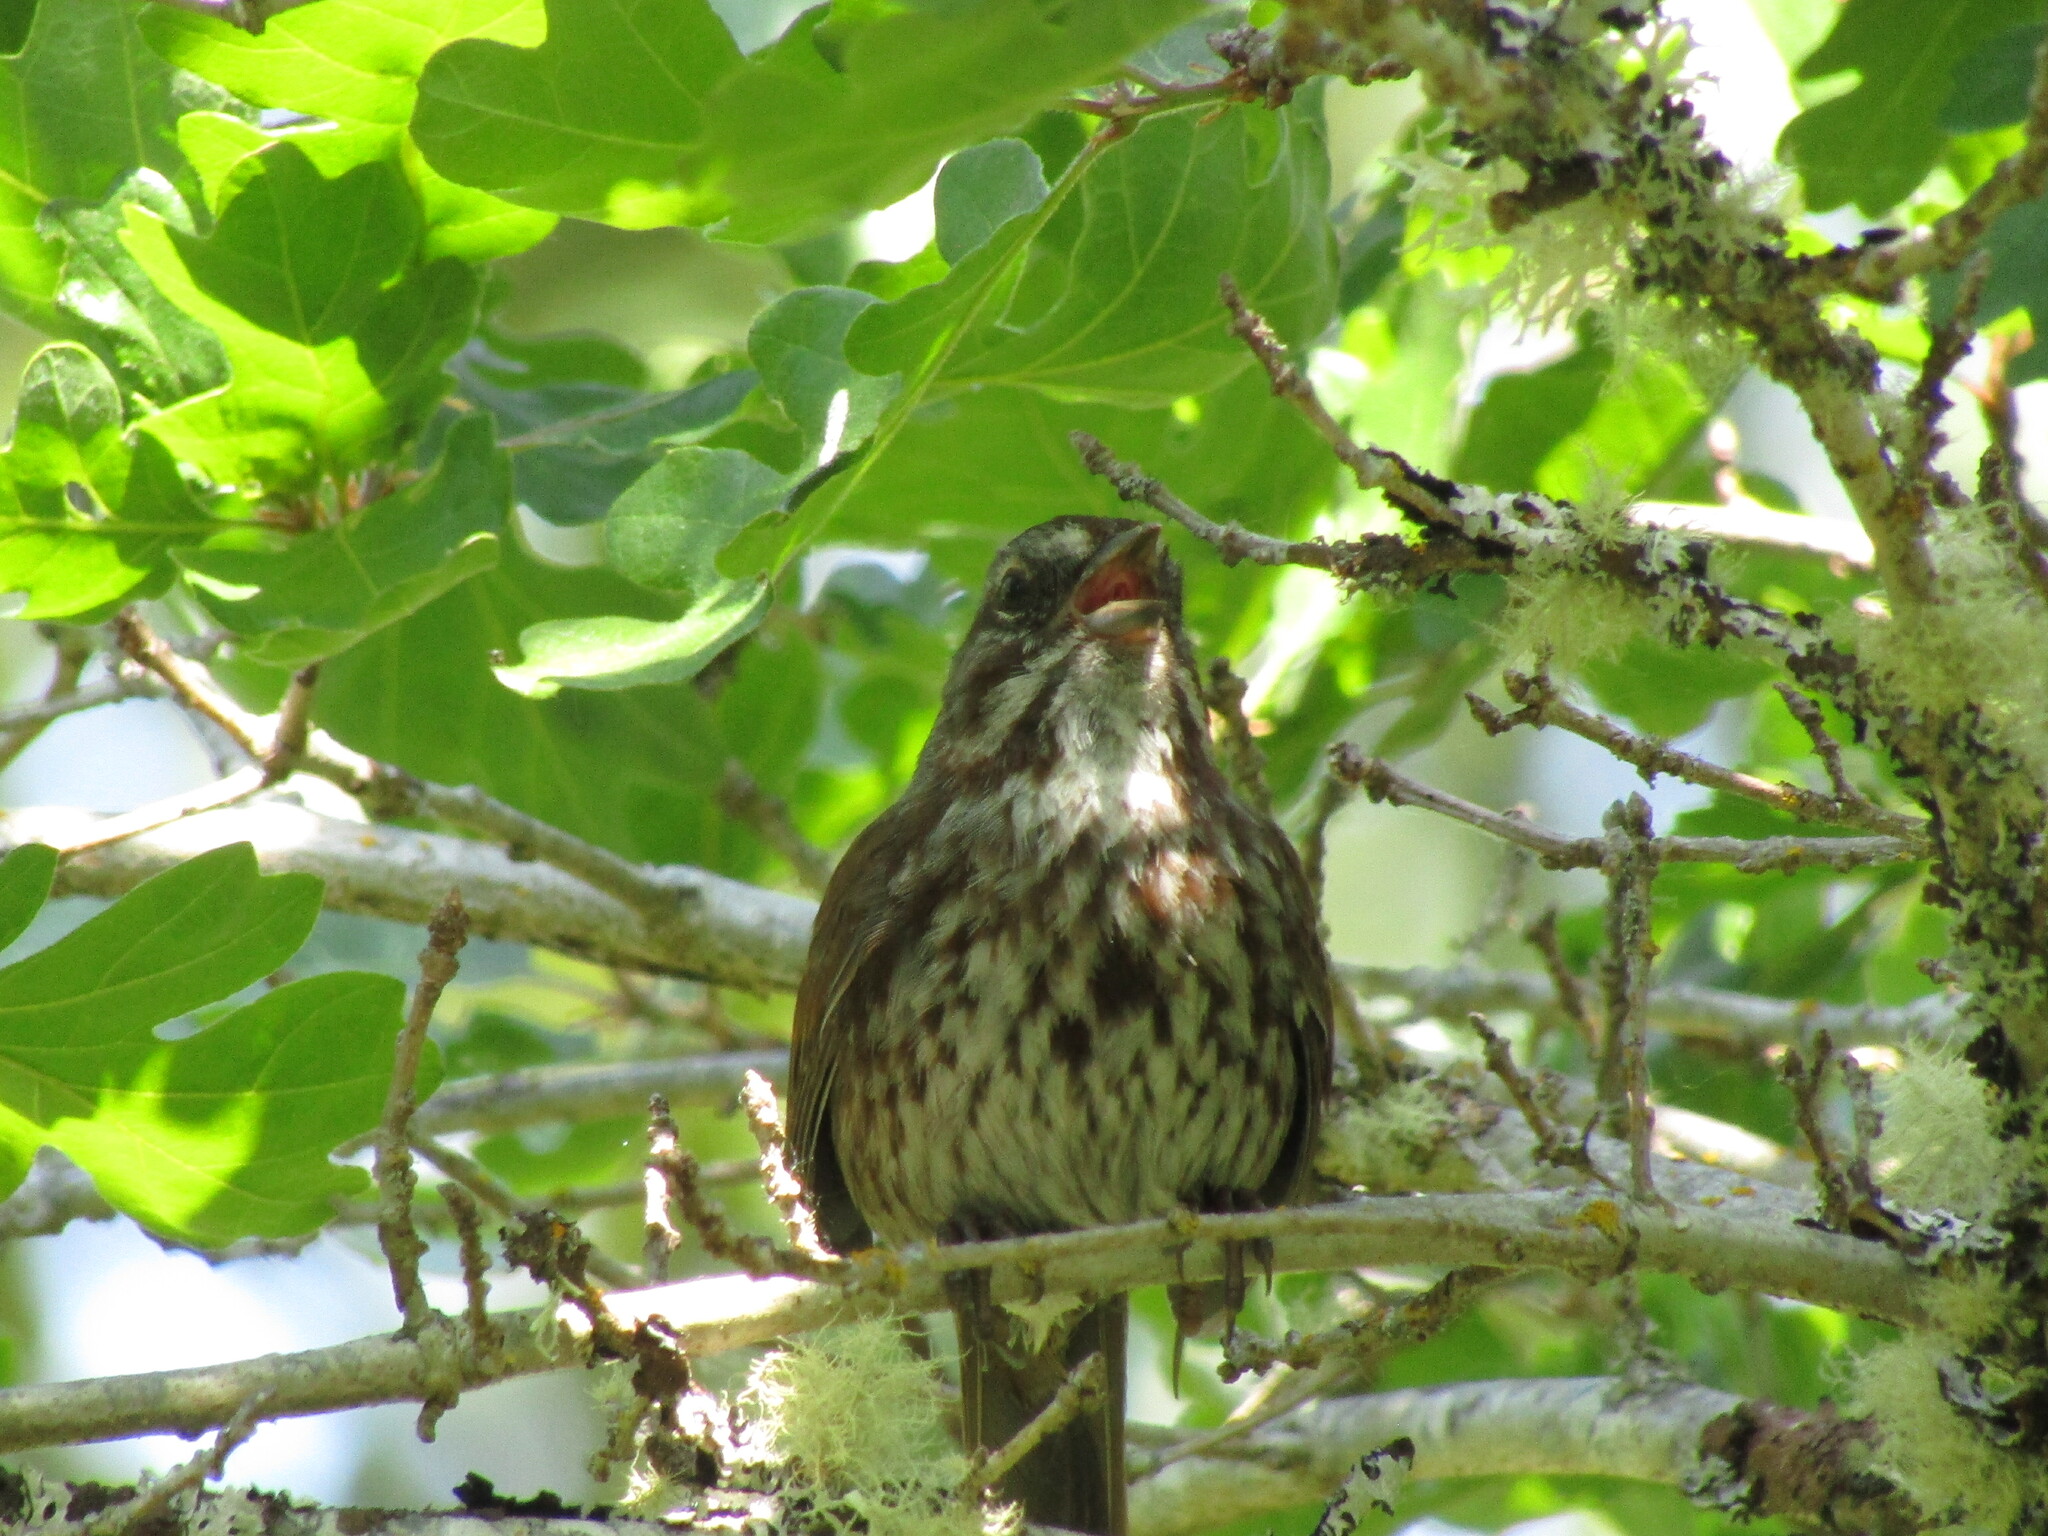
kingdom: Animalia
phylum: Chordata
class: Aves
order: Passeriformes
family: Passerellidae
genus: Melospiza
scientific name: Melospiza melodia
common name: Song sparrow
